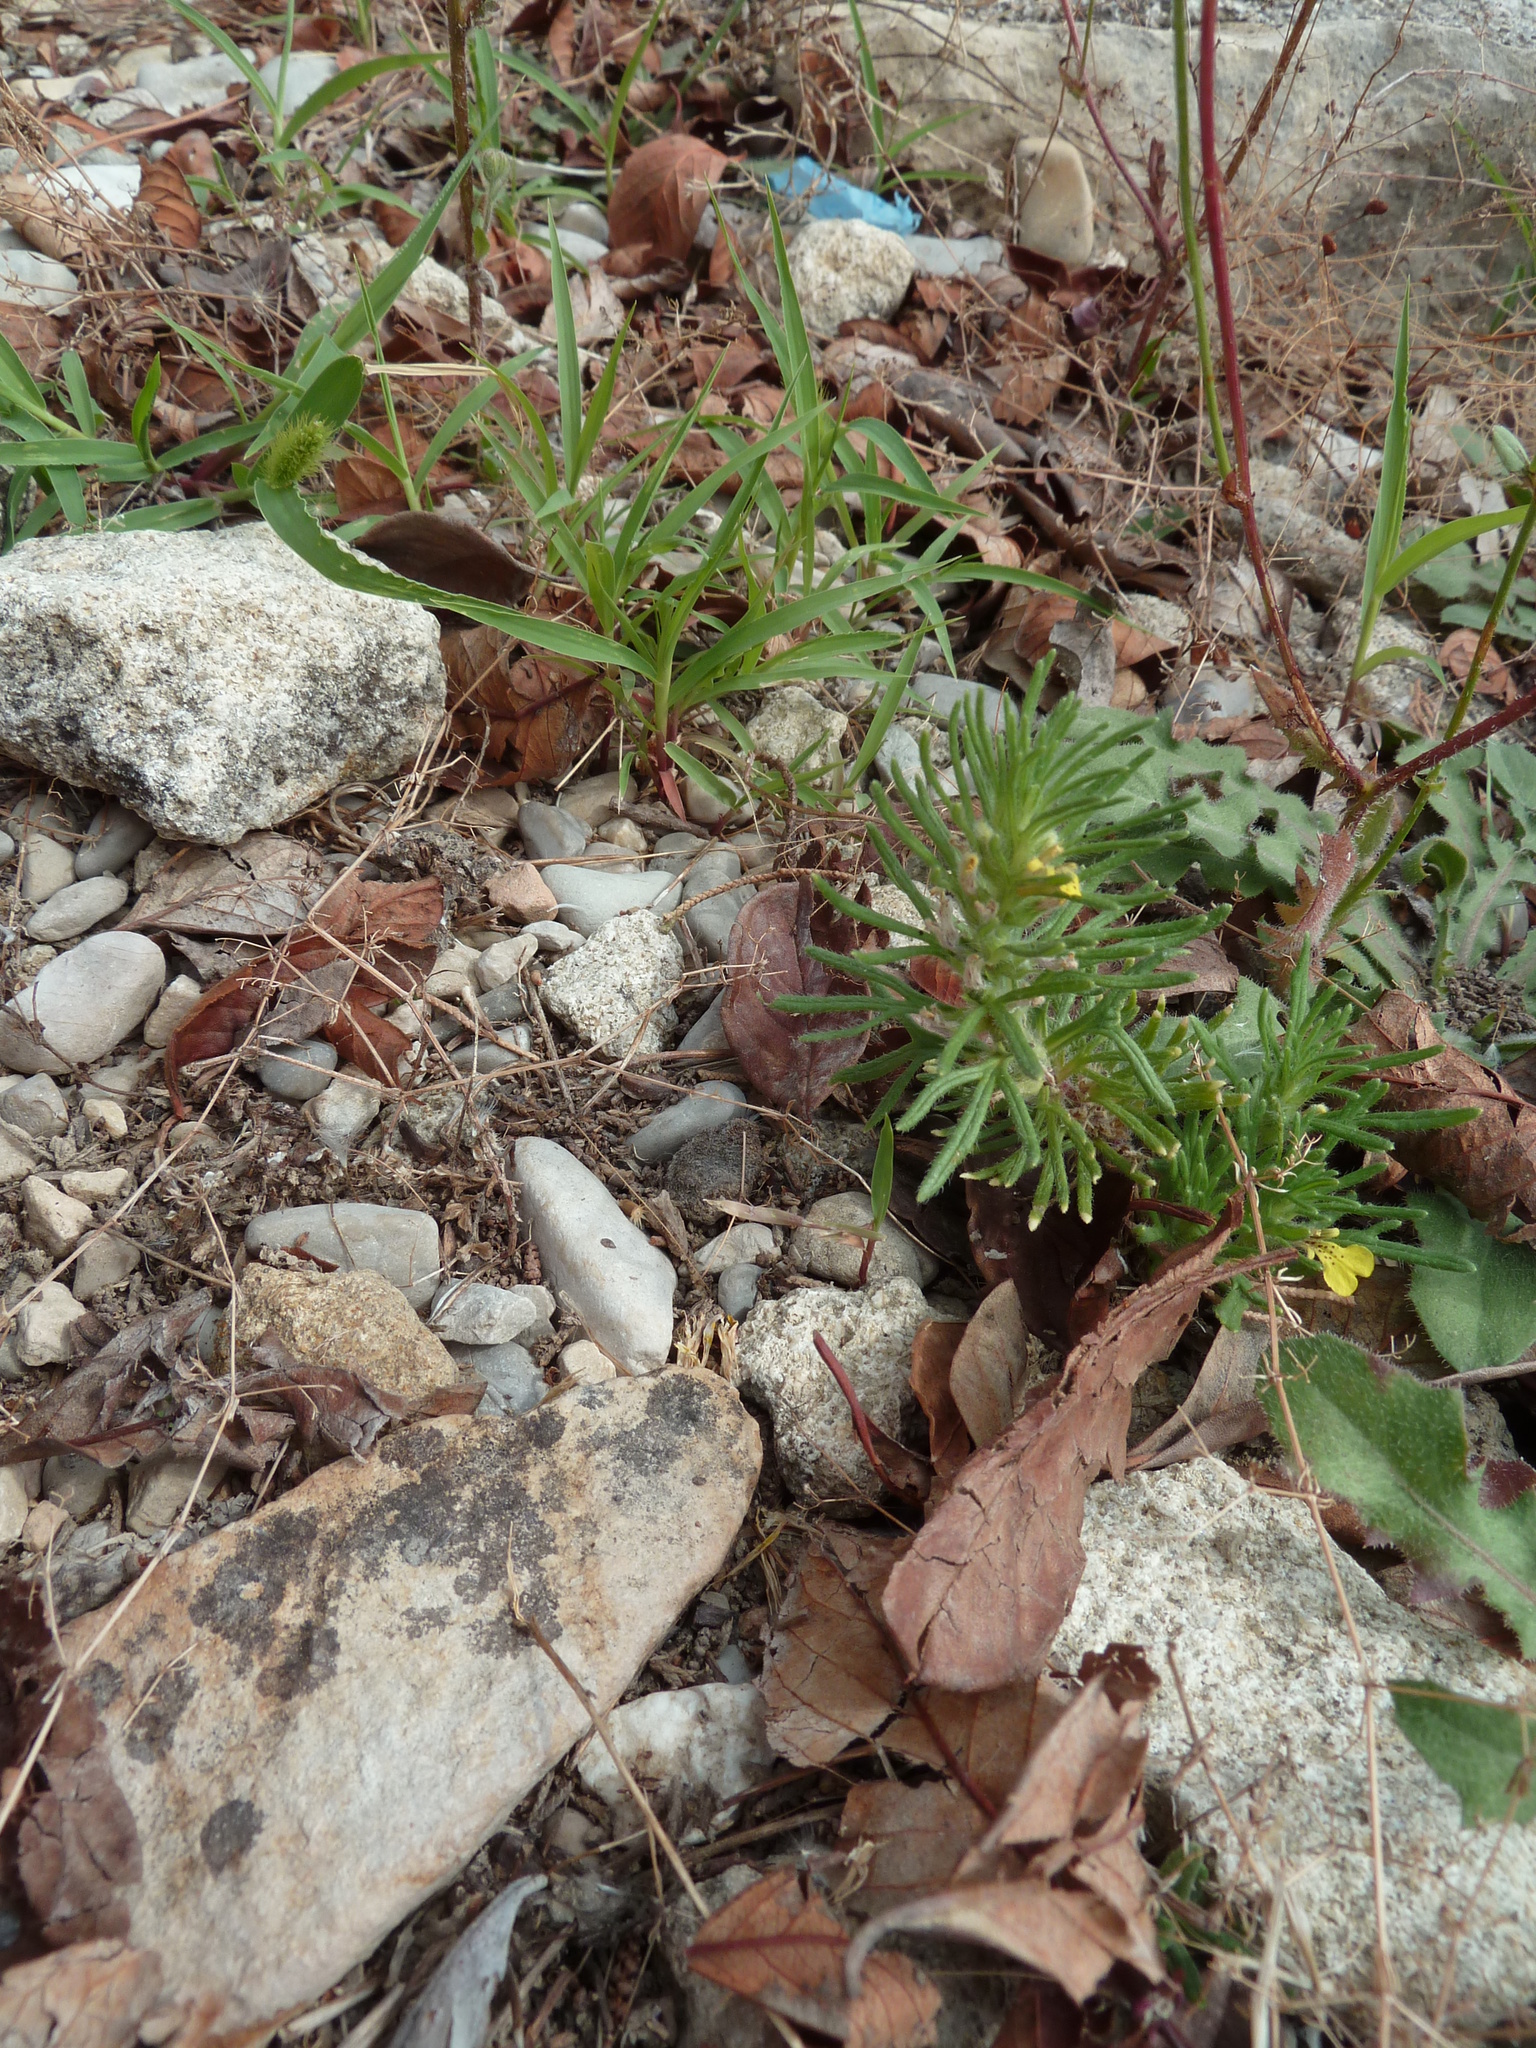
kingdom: Plantae
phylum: Tracheophyta
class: Magnoliopsida
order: Lamiales
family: Lamiaceae
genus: Ajuga
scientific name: Ajuga chamaepitys
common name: Ground-pine
